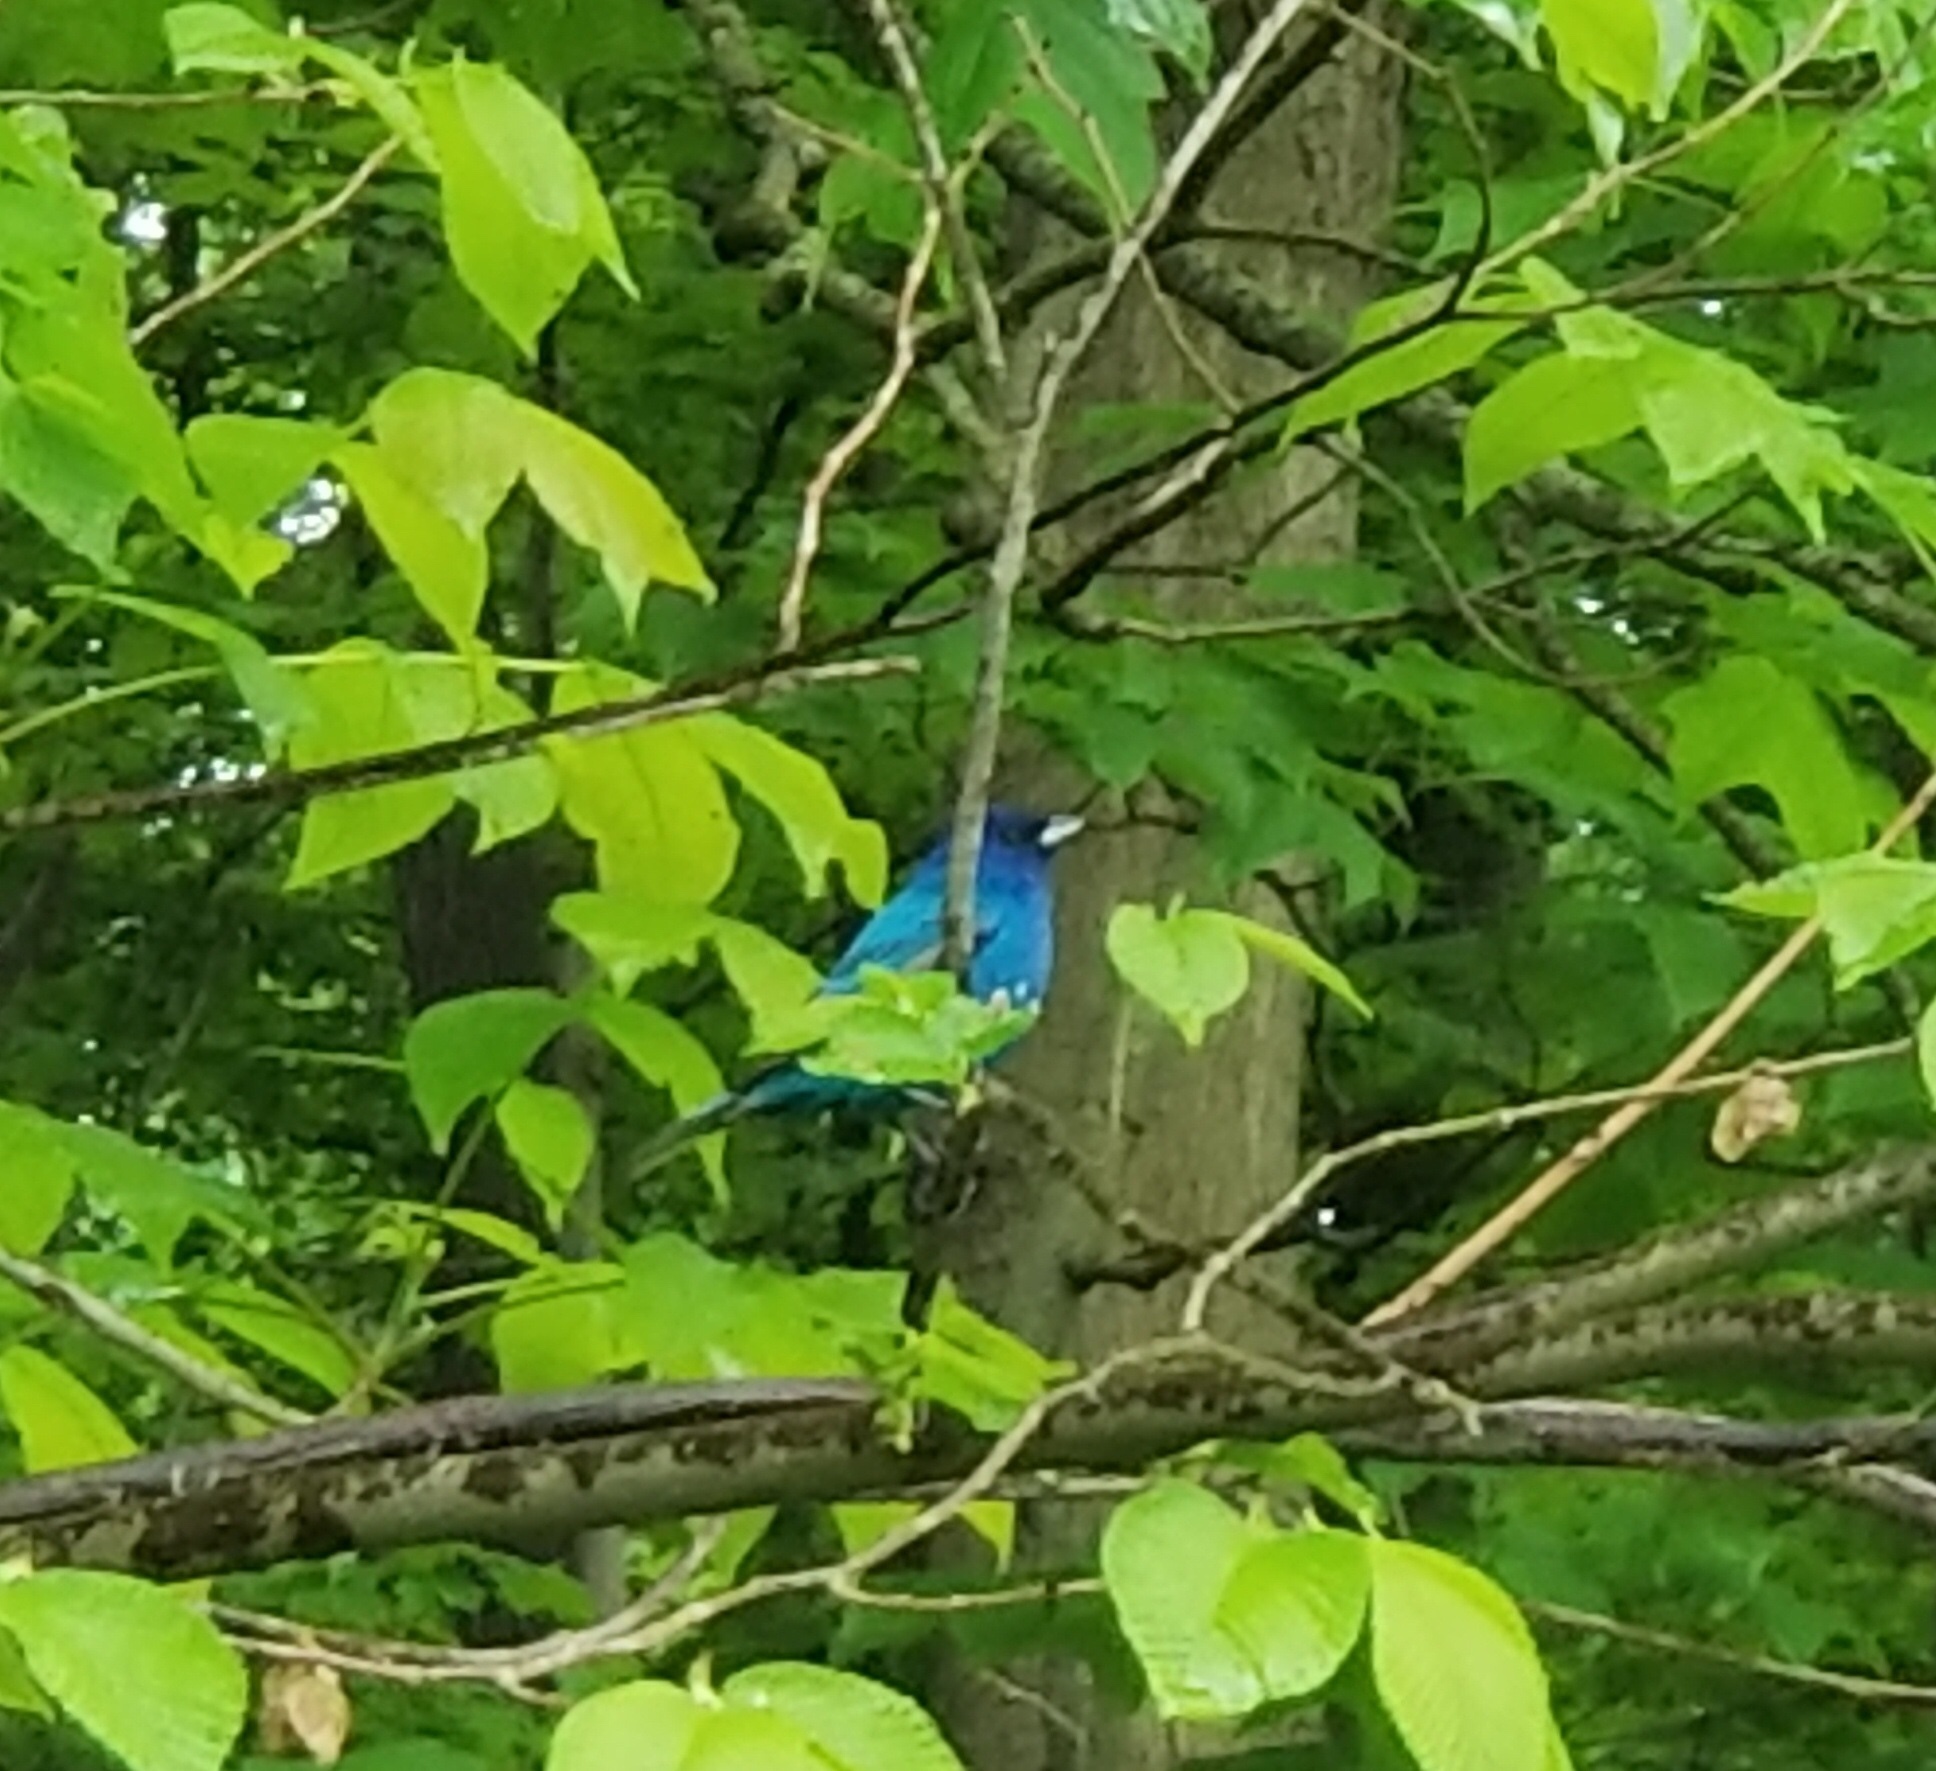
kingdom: Animalia
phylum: Chordata
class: Aves
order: Passeriformes
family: Cardinalidae
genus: Passerina
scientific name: Passerina cyanea
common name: Indigo bunting
